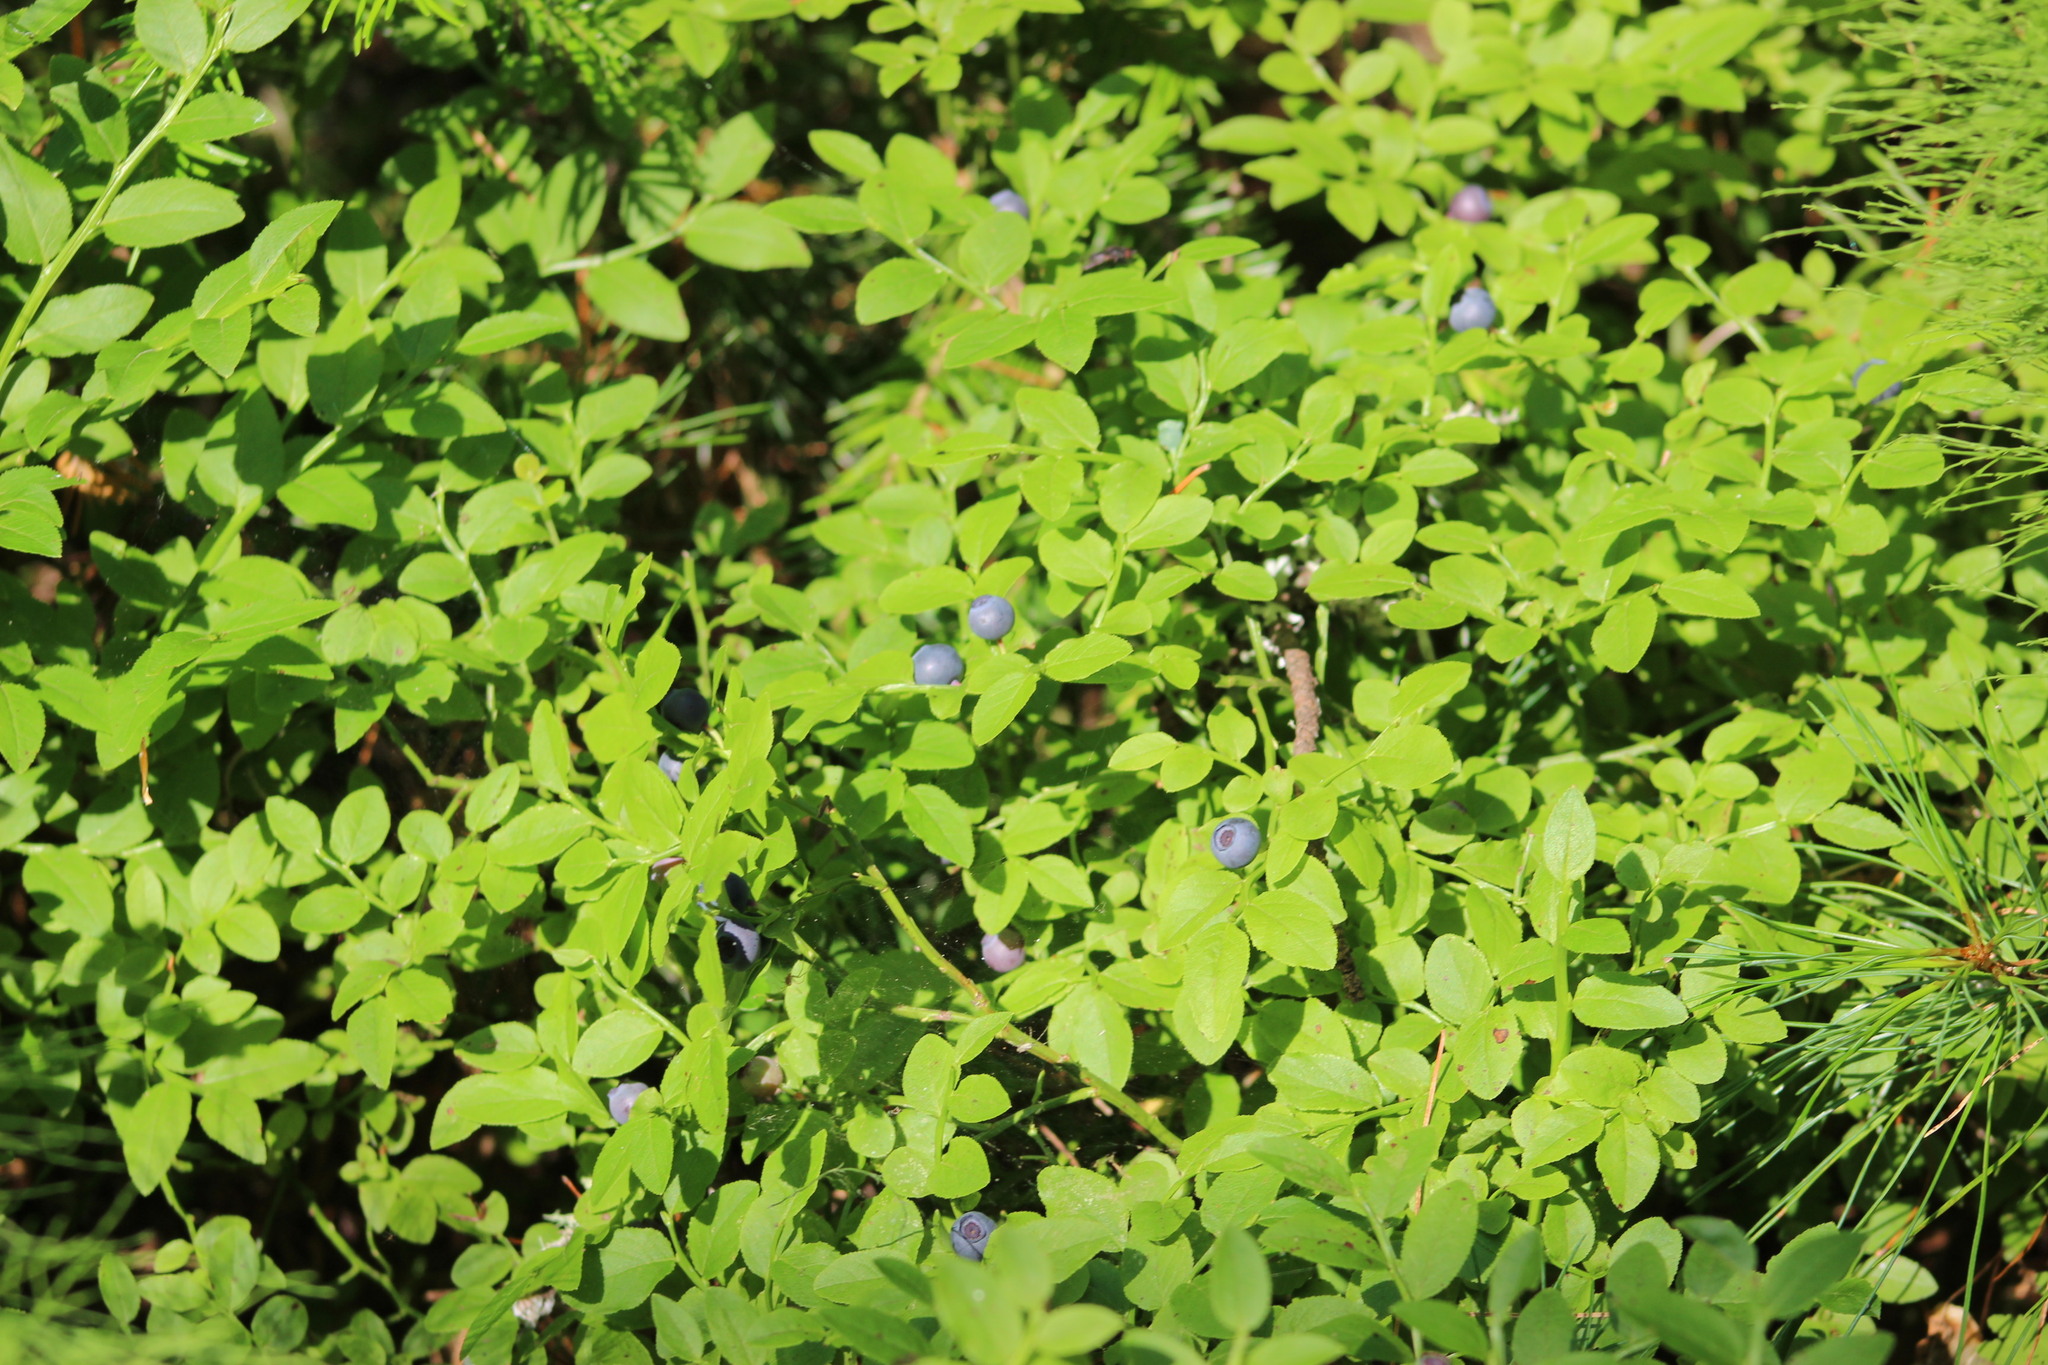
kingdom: Plantae
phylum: Tracheophyta
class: Magnoliopsida
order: Ericales
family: Ericaceae
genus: Vaccinium
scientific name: Vaccinium myrtillus
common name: Bilberry
